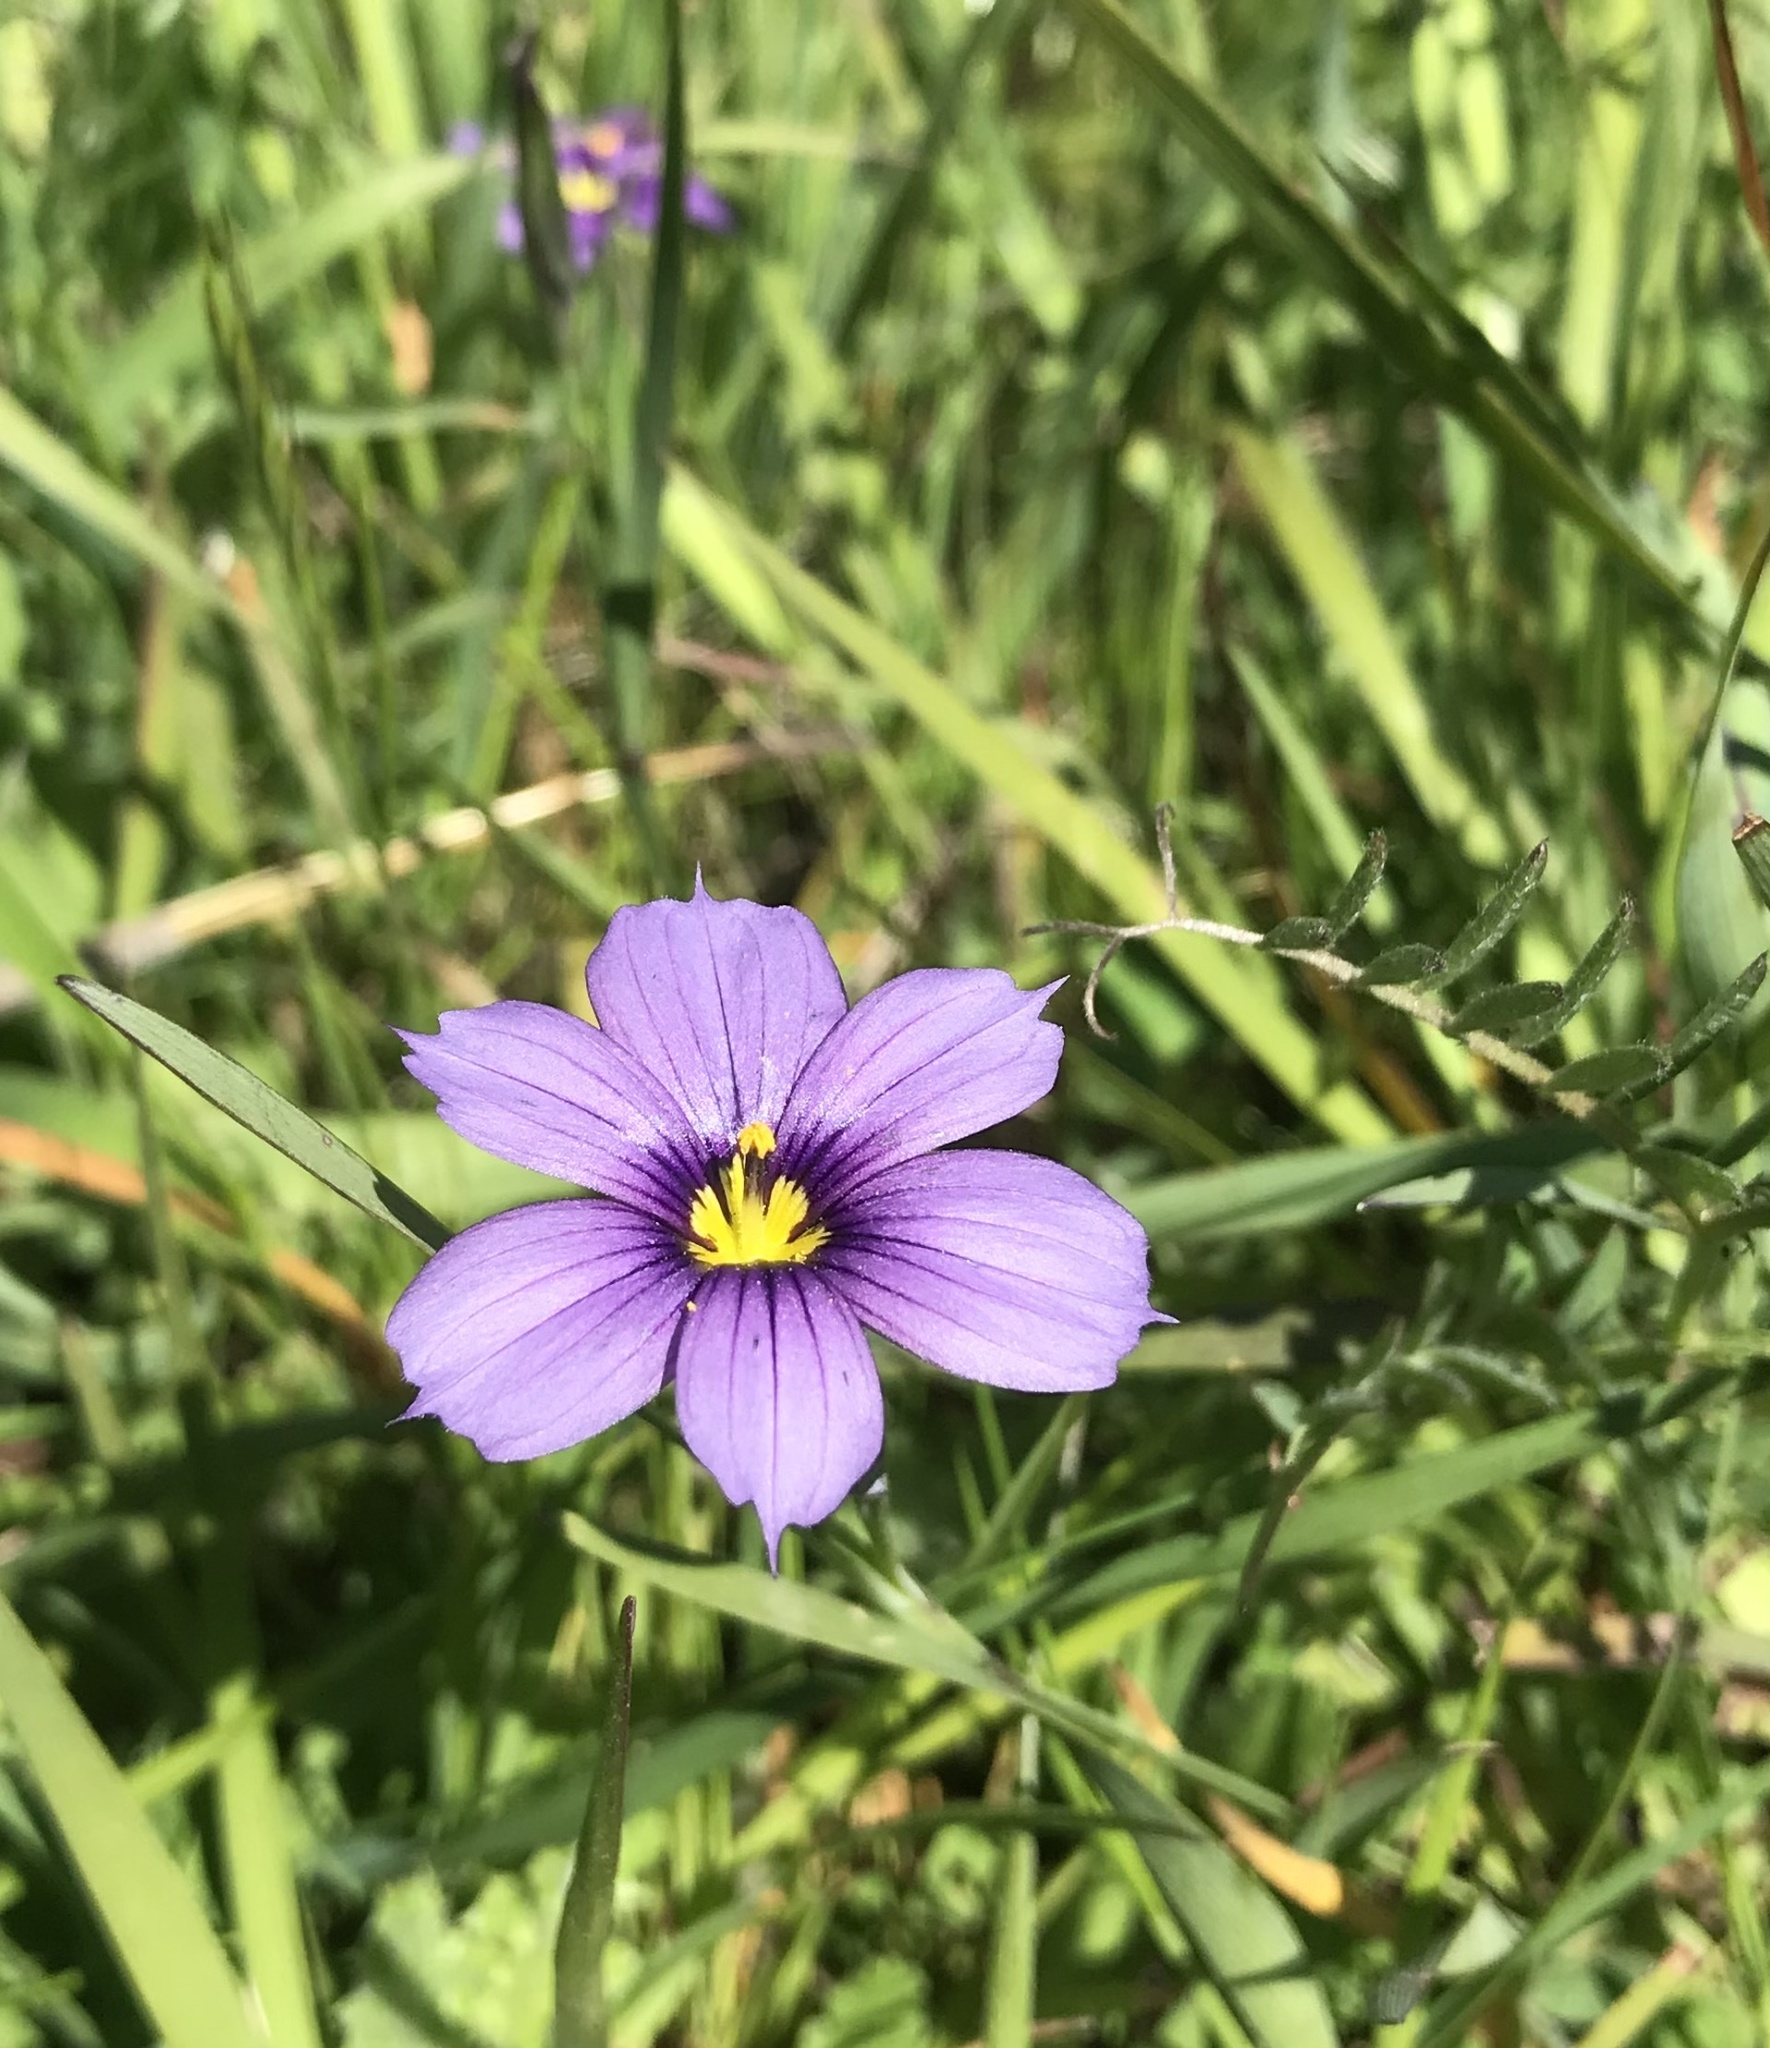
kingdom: Plantae
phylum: Tracheophyta
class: Liliopsida
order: Asparagales
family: Iridaceae
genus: Sisyrinchium
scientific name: Sisyrinchium bellum
